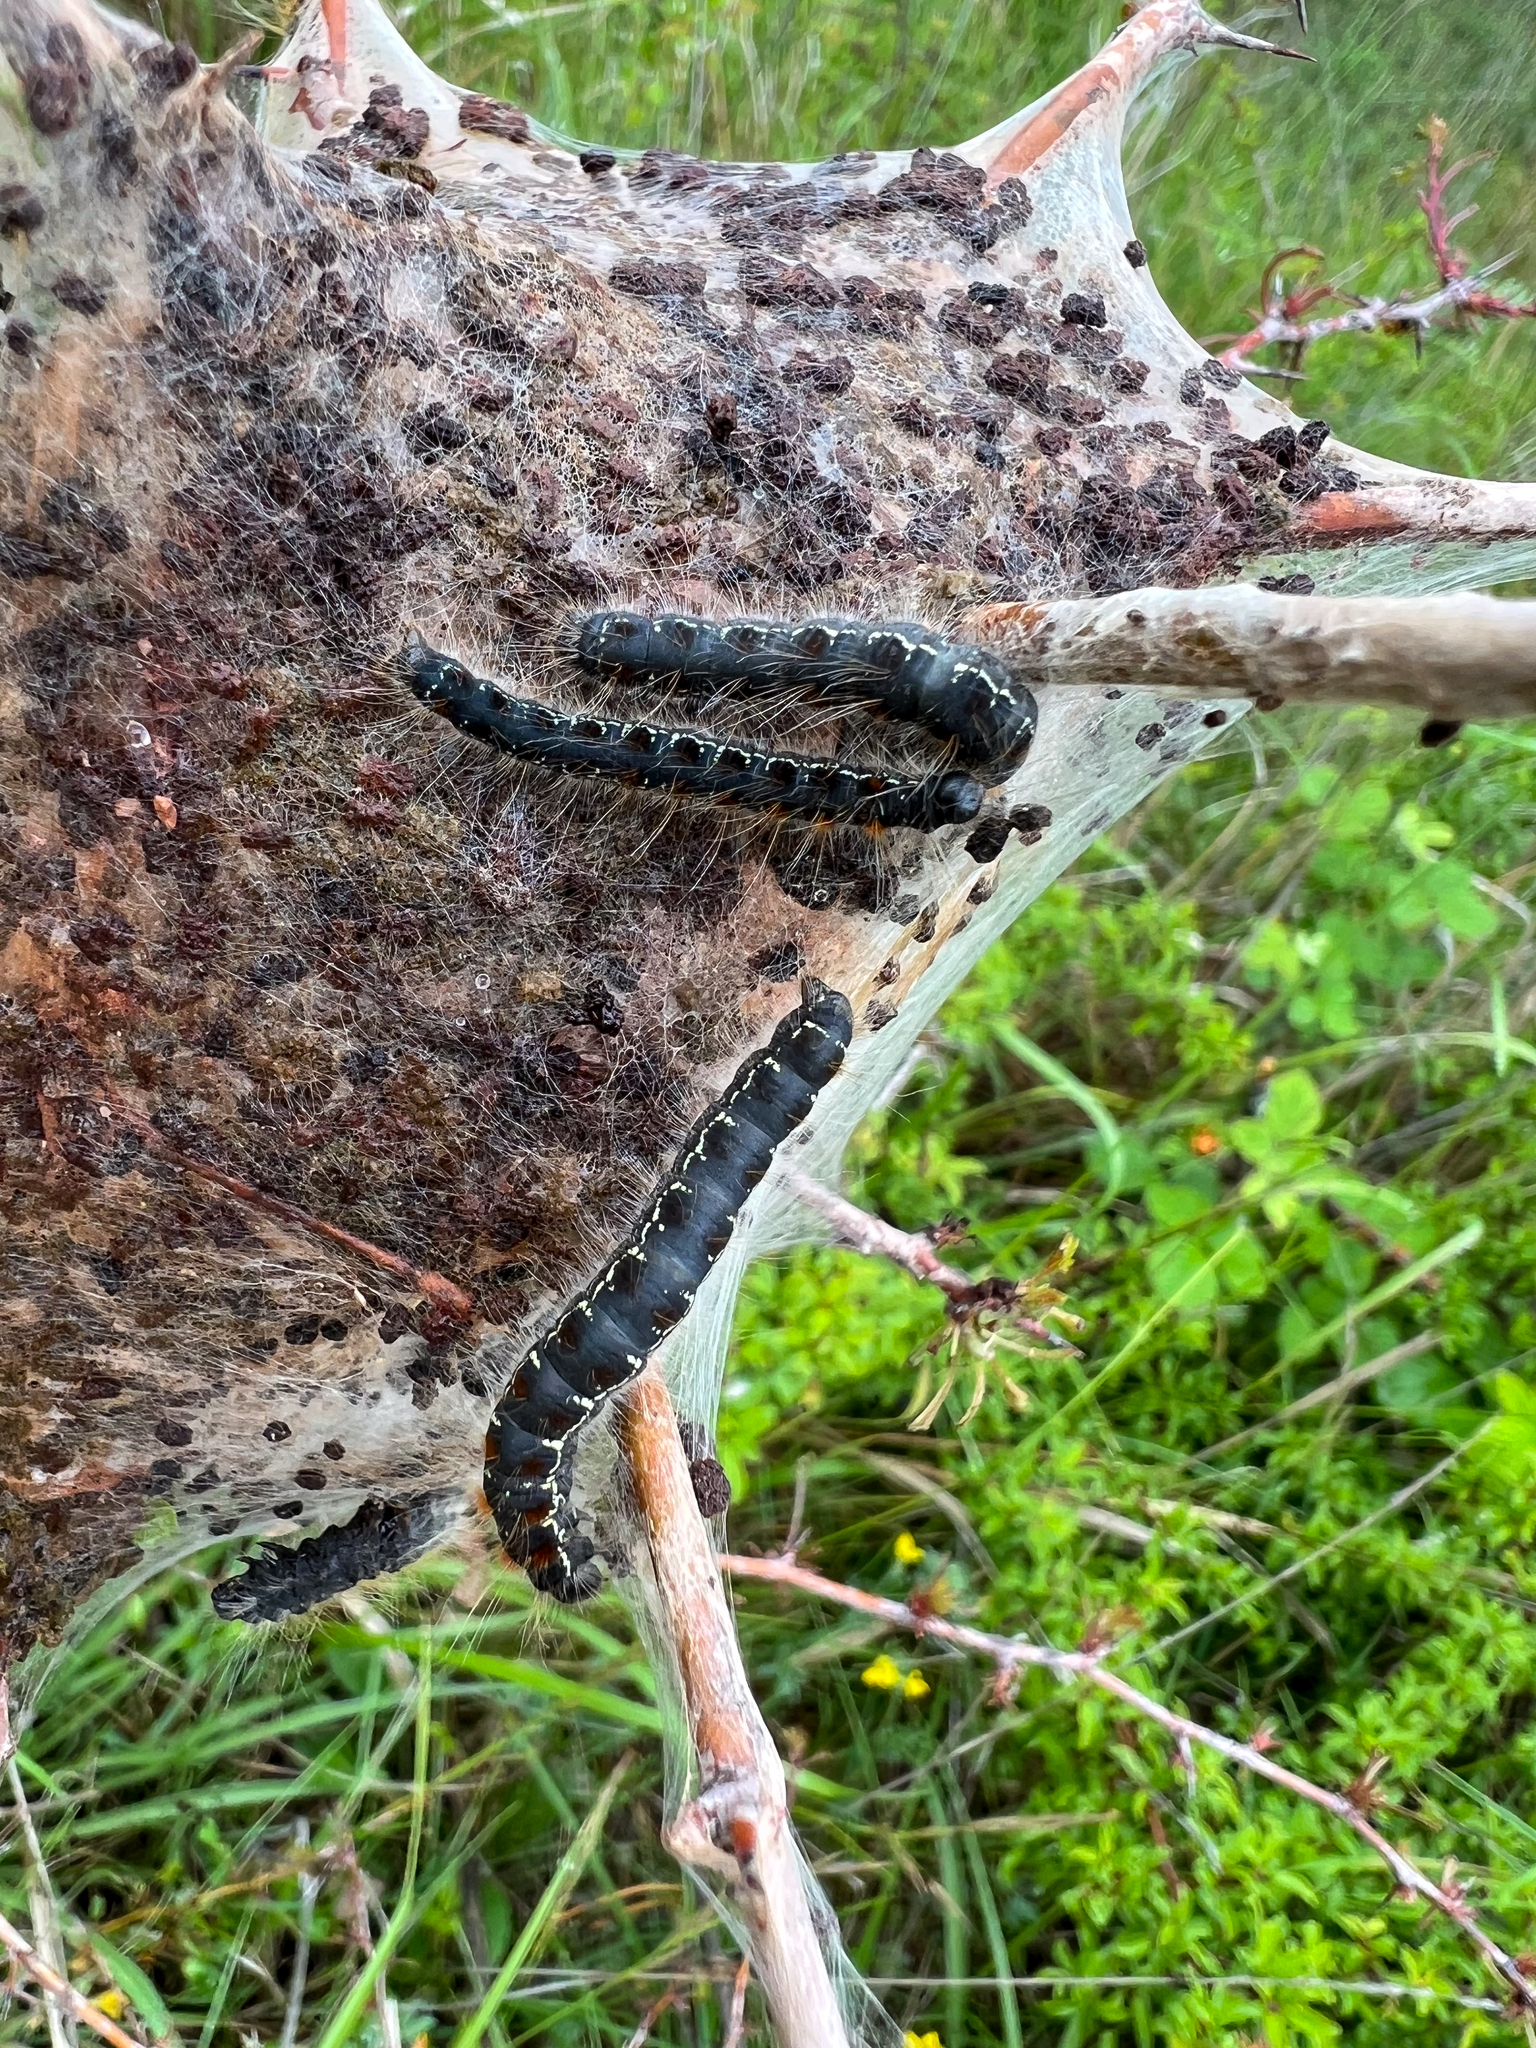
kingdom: Animalia
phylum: Arthropoda
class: Insecta
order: Lepidoptera
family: Lasiocampidae
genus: Eriogaster
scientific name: Eriogaster lanestris
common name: Small eggar
